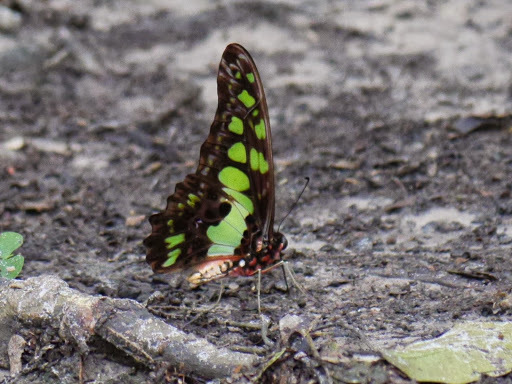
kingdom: Animalia
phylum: Arthropoda
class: Insecta
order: Lepidoptera
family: Papilionidae
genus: Graphium
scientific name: Graphium tynderaeus
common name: Electric green swordtail
